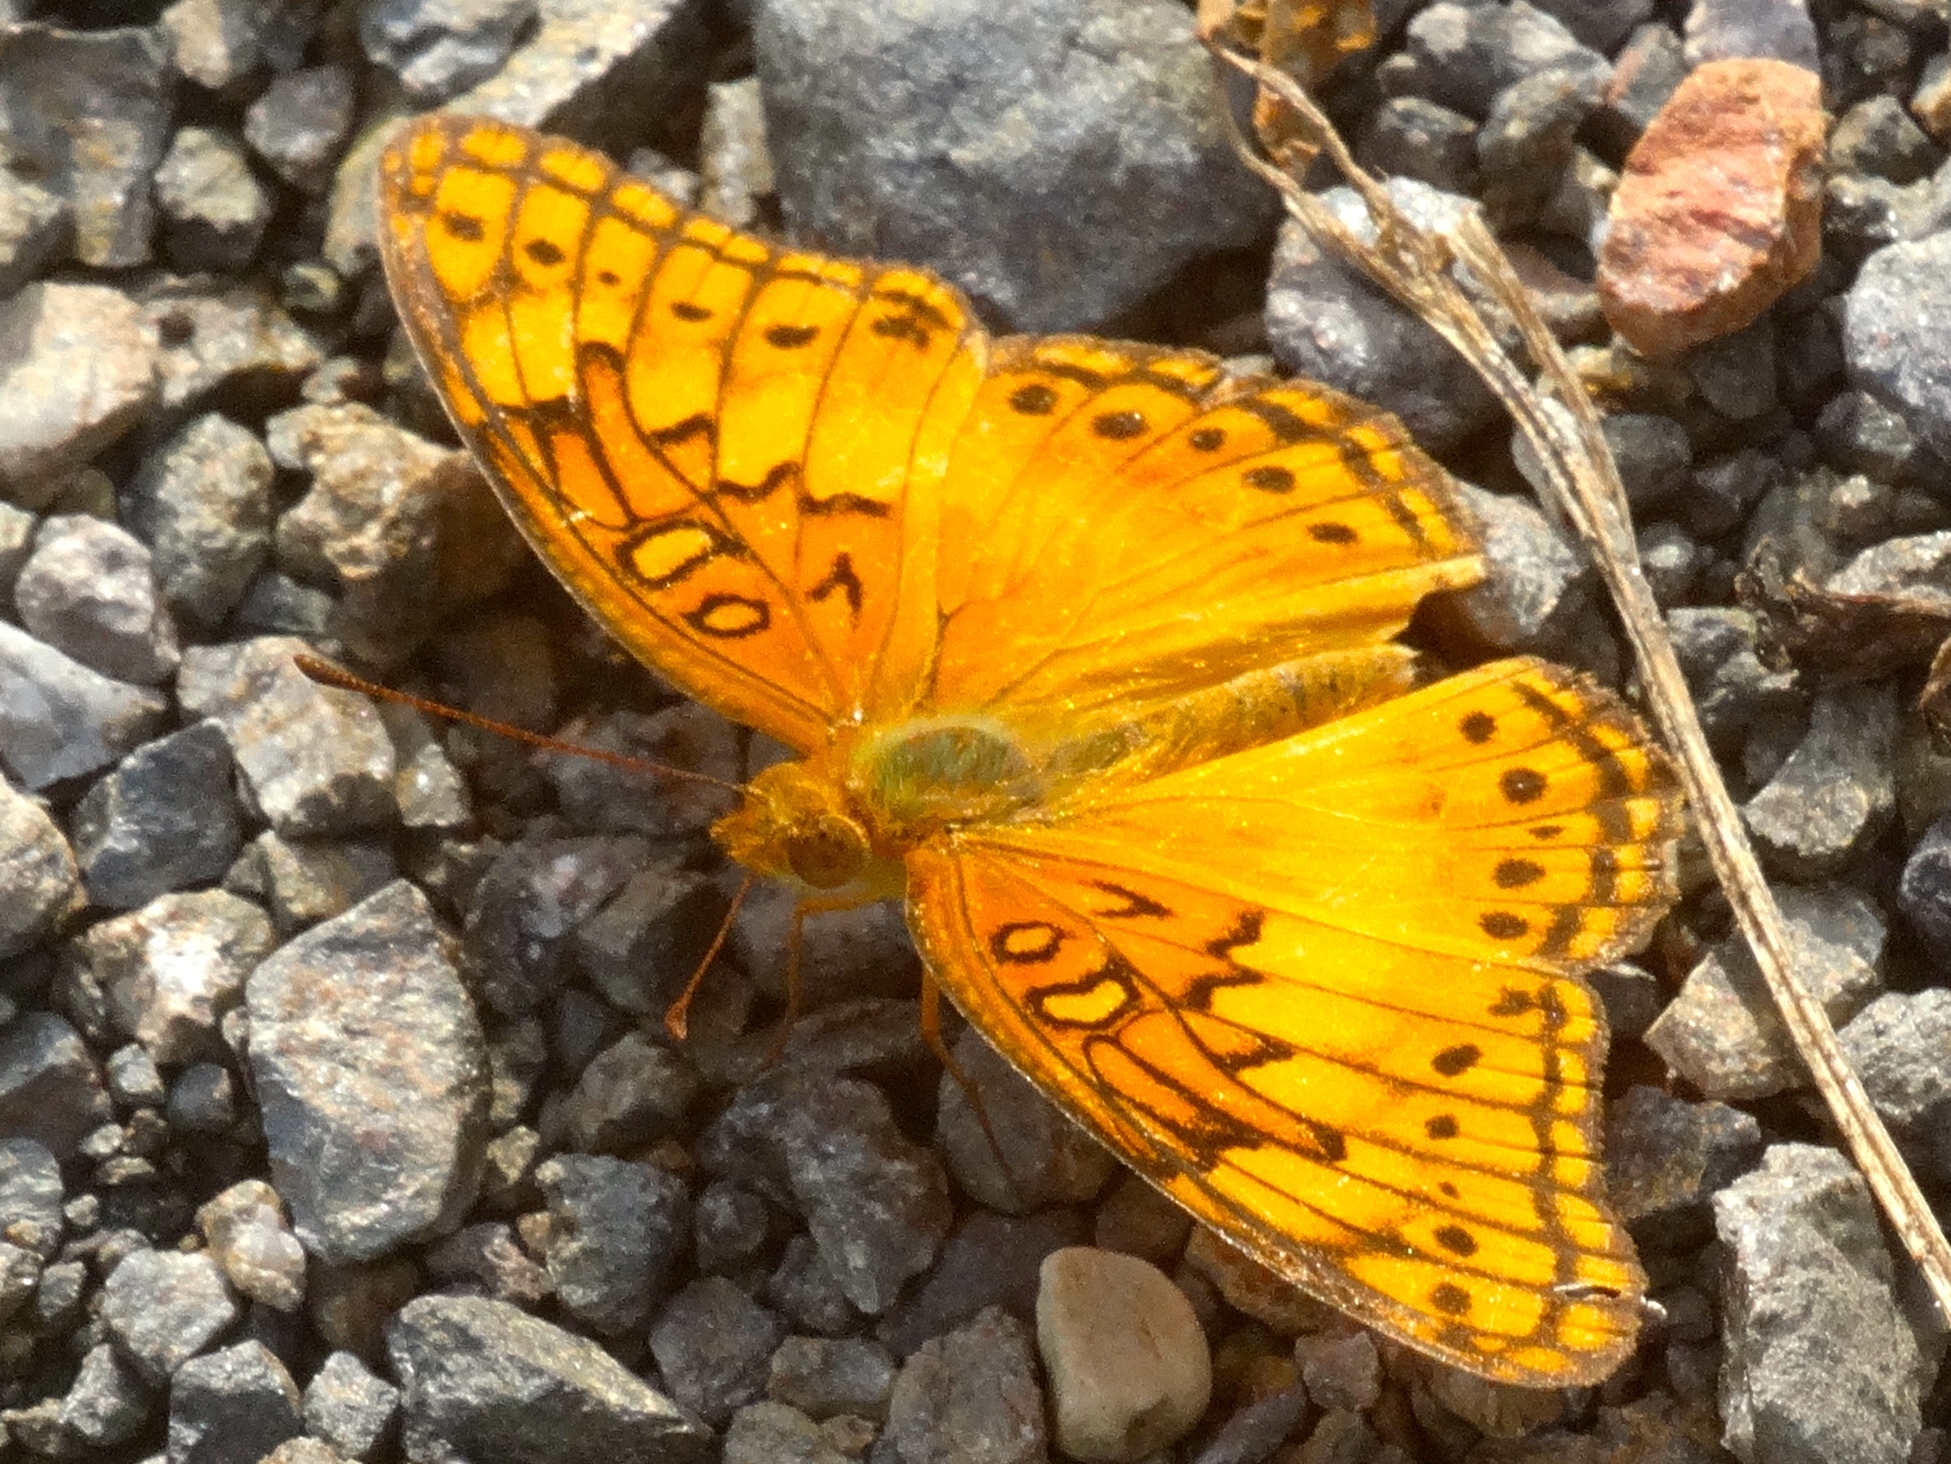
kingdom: Animalia
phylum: Arthropoda
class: Insecta
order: Lepidoptera
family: Nymphalidae
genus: Euptoieta
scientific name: Euptoieta hegesia
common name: Mexican fritillary
